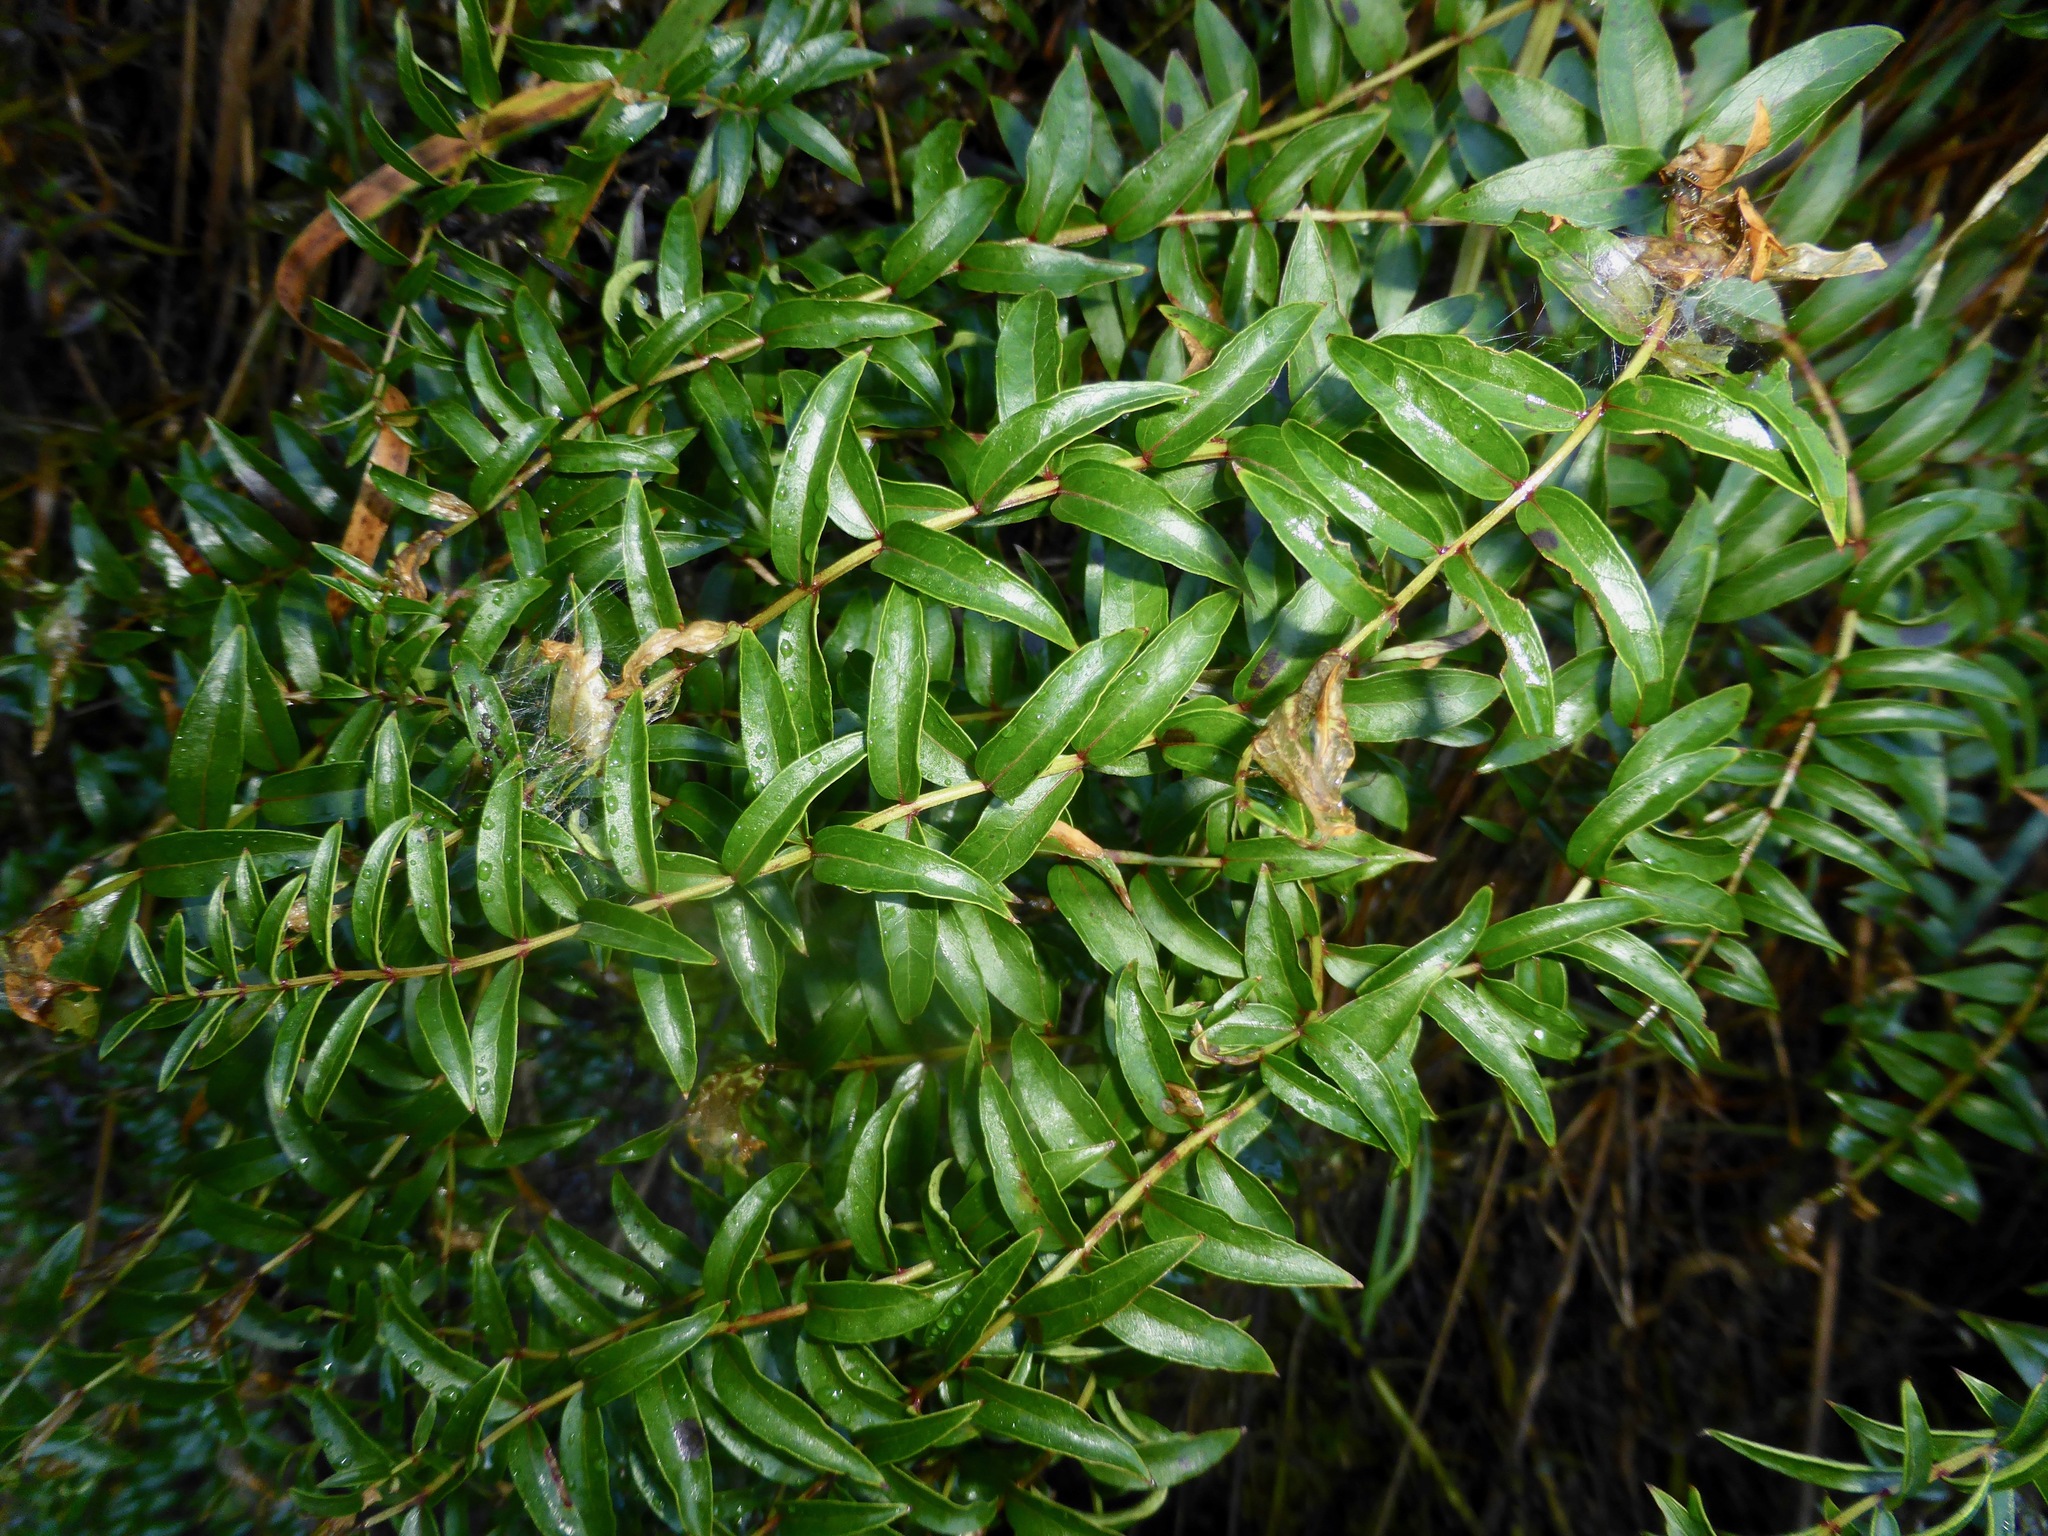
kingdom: Plantae
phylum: Tracheophyta
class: Magnoliopsida
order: Cucurbitales
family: Coriariaceae
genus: Coriaria
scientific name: Coriaria plumosa
